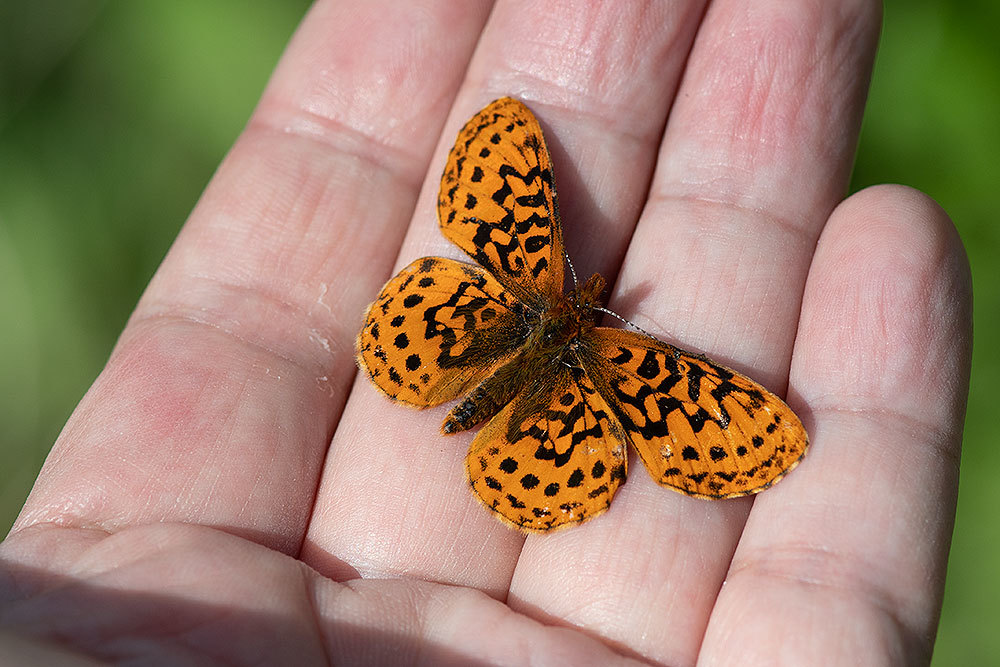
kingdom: Animalia
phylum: Arthropoda
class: Insecta
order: Lepidoptera
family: Nymphalidae
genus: Boloria
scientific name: Boloria epithore
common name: Pacific fritillary
